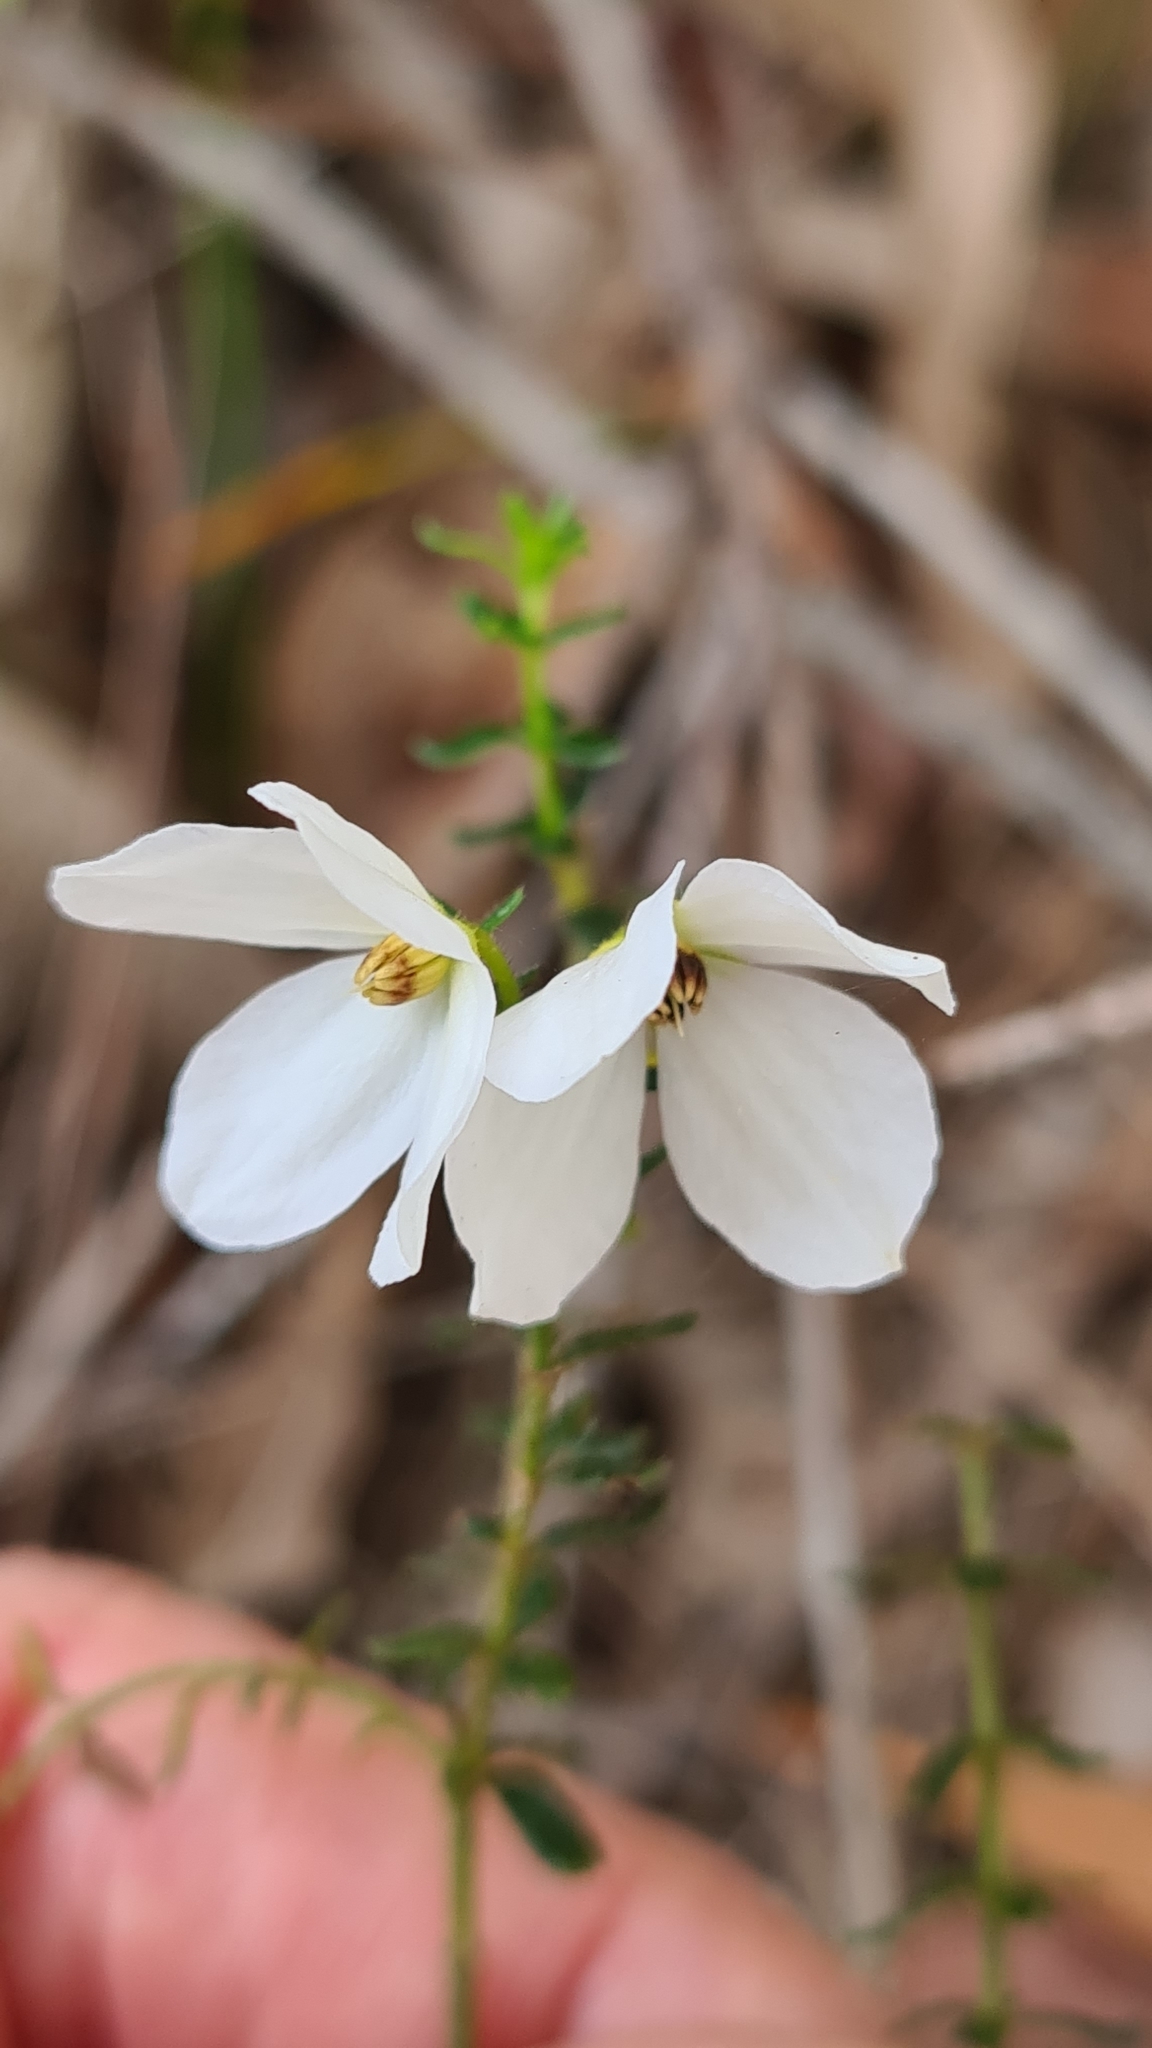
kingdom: Plantae
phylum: Tracheophyta
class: Magnoliopsida
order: Oxalidales
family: Elaeocarpaceae
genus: Tetratheca
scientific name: Tetratheca thymifolia
